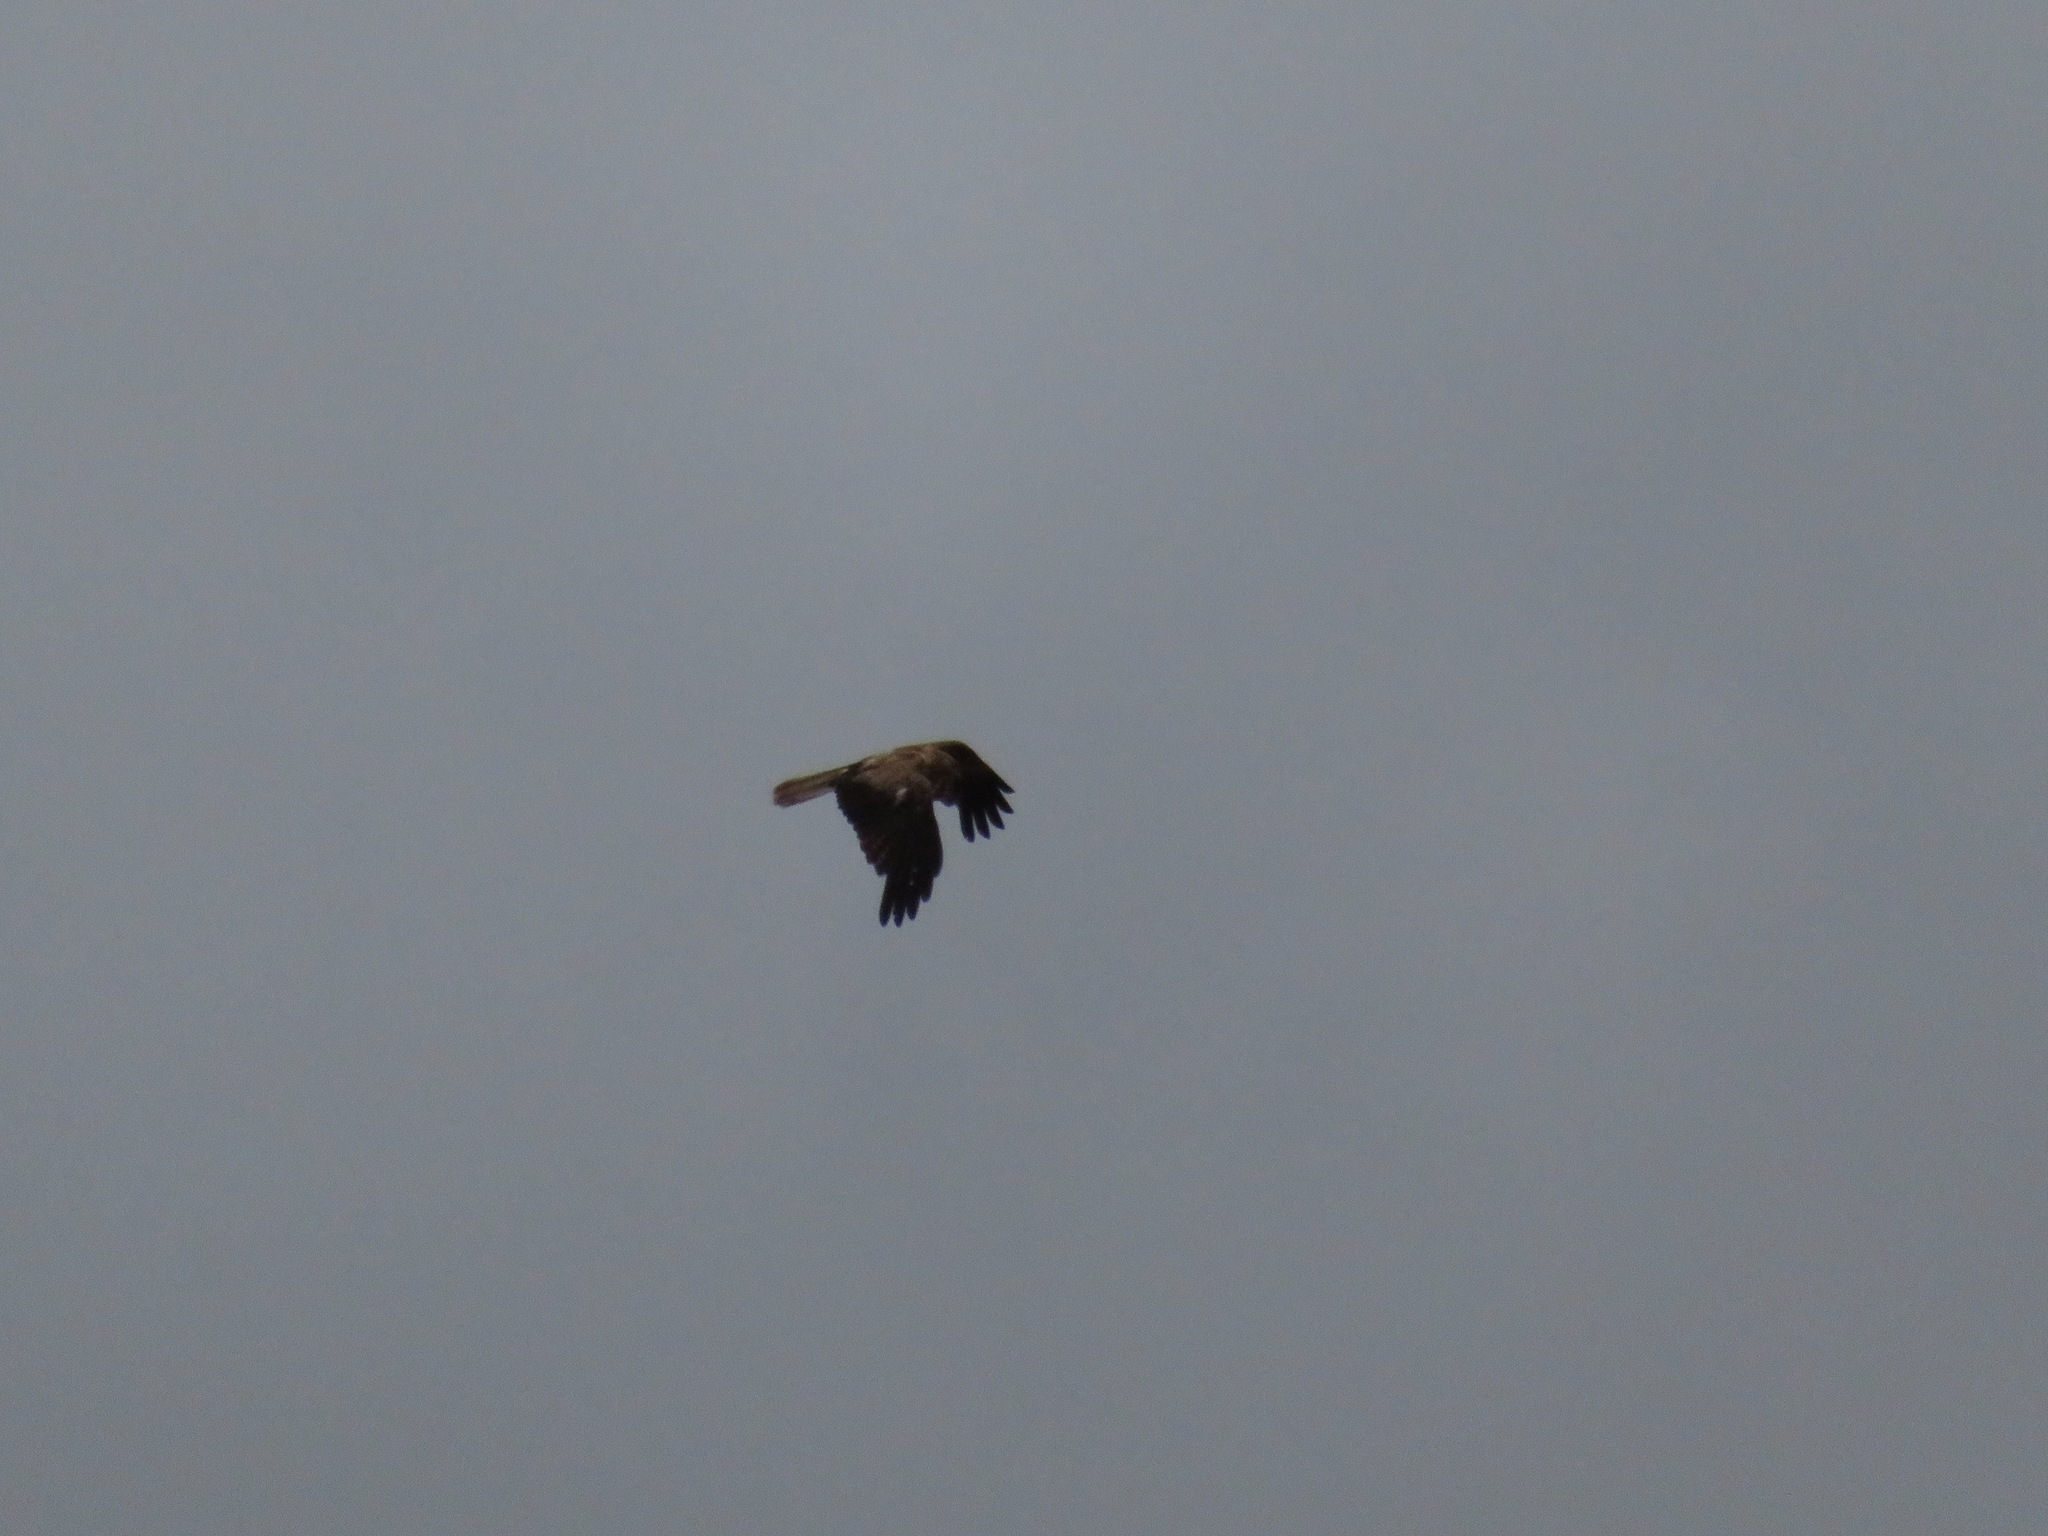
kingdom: Animalia
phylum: Chordata
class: Aves
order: Accipitriformes
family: Accipitridae
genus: Haliastur
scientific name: Haliastur sphenurus
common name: Whistling kite
